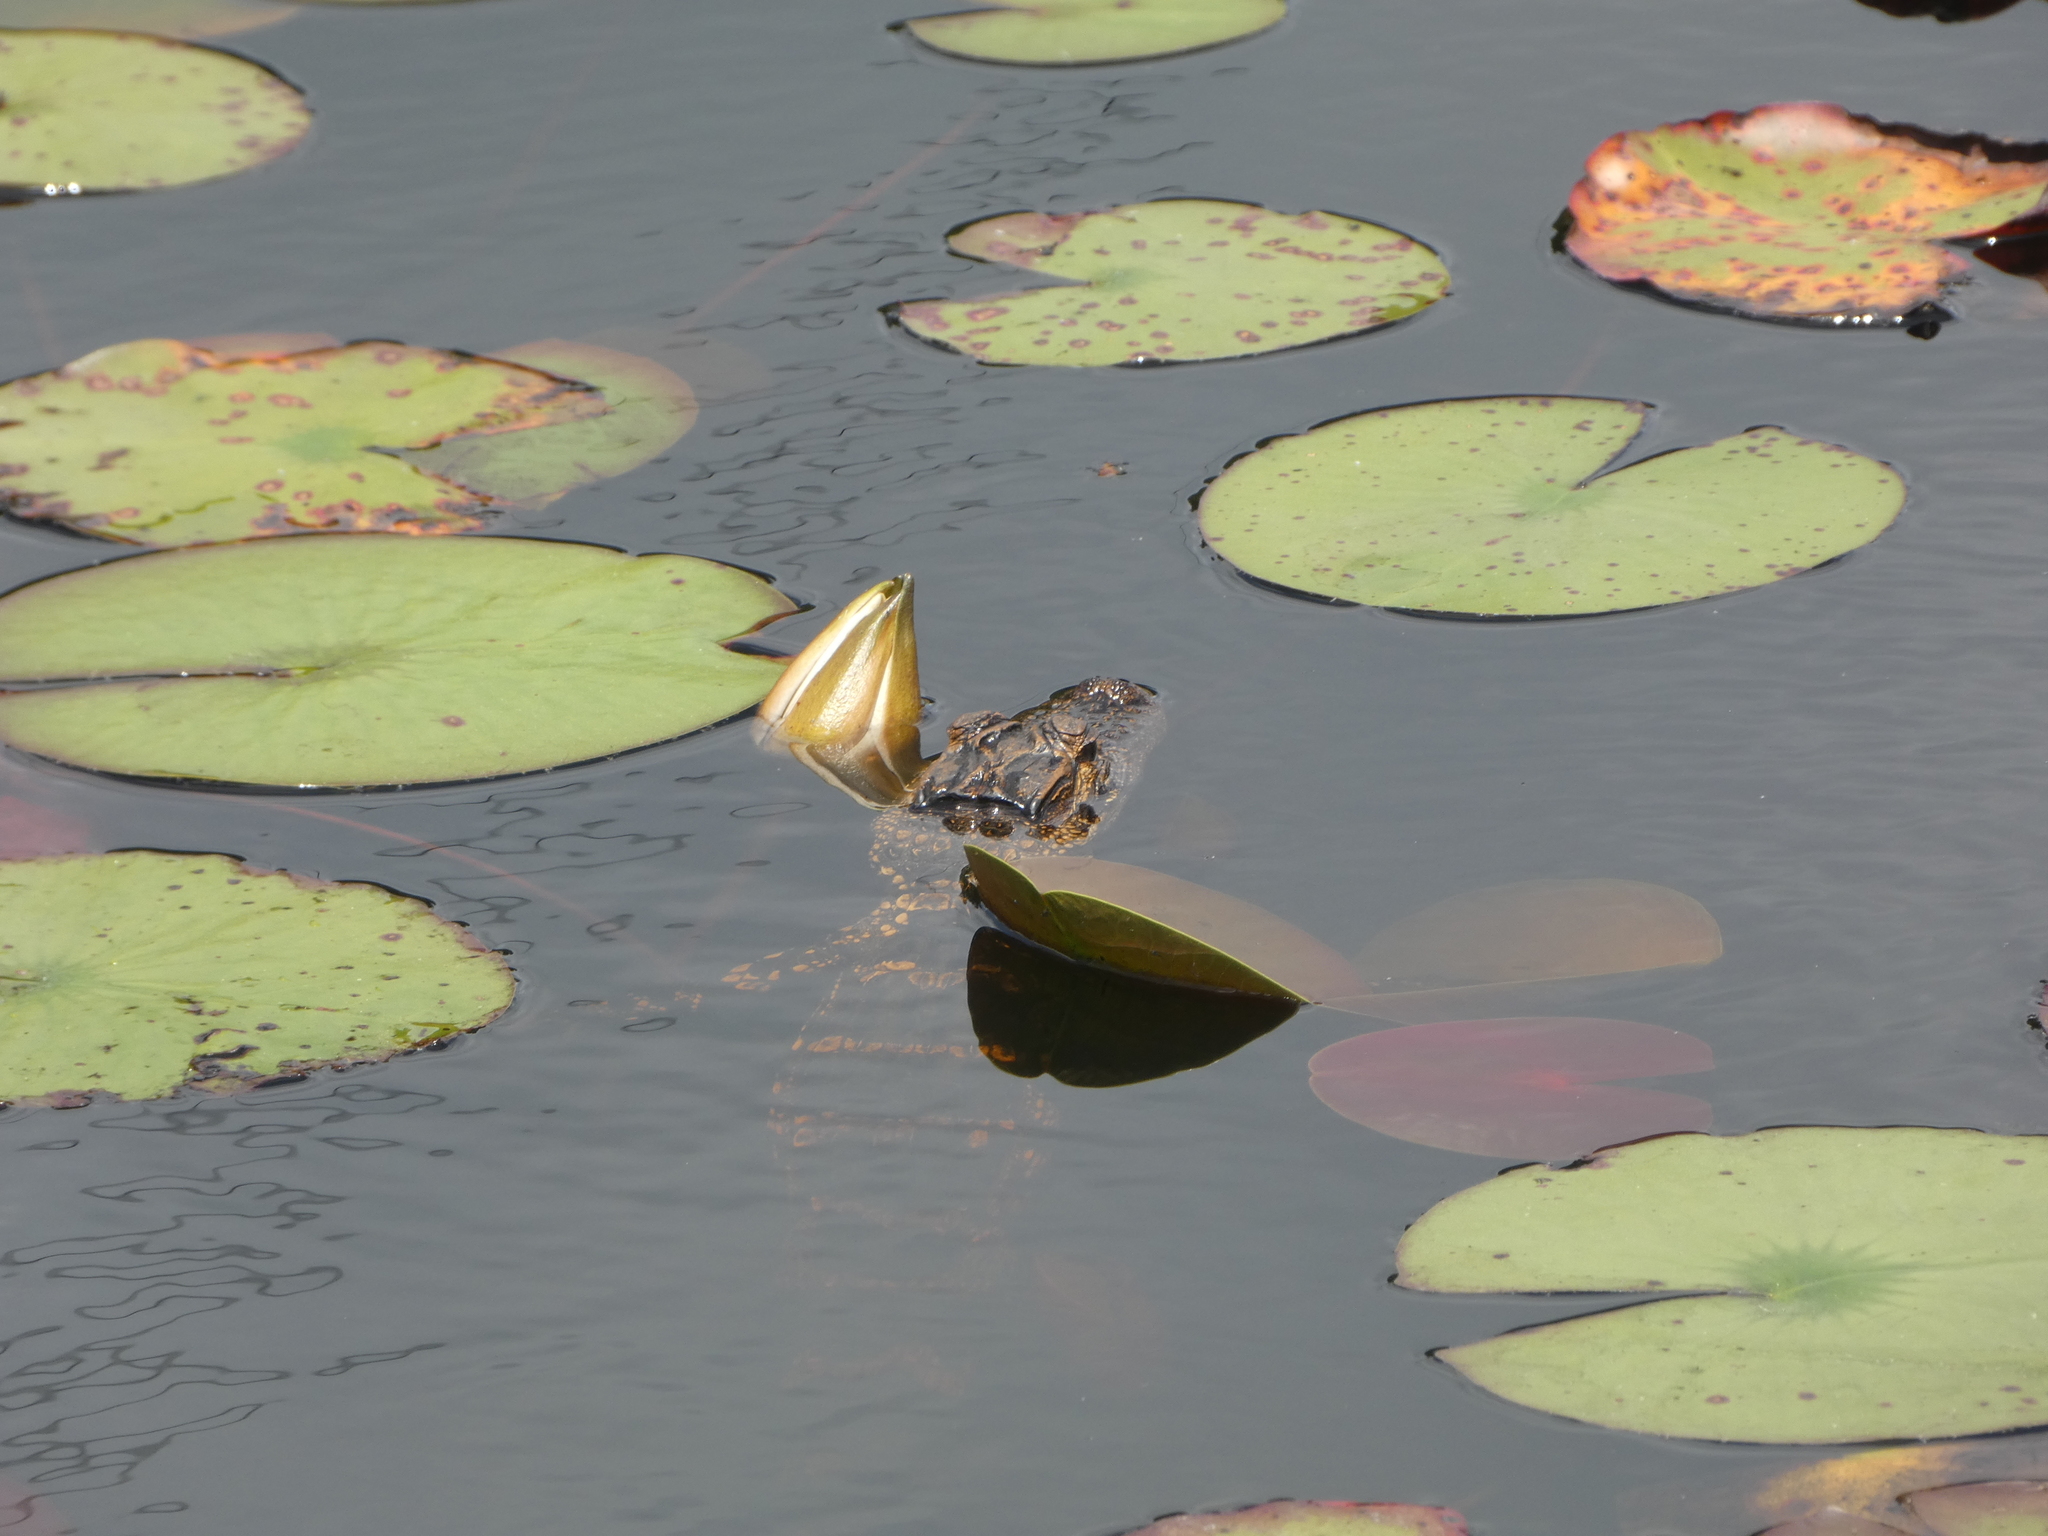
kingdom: Animalia
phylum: Chordata
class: Crocodylia
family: Alligatoridae
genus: Alligator
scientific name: Alligator mississippiensis
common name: American alligator
